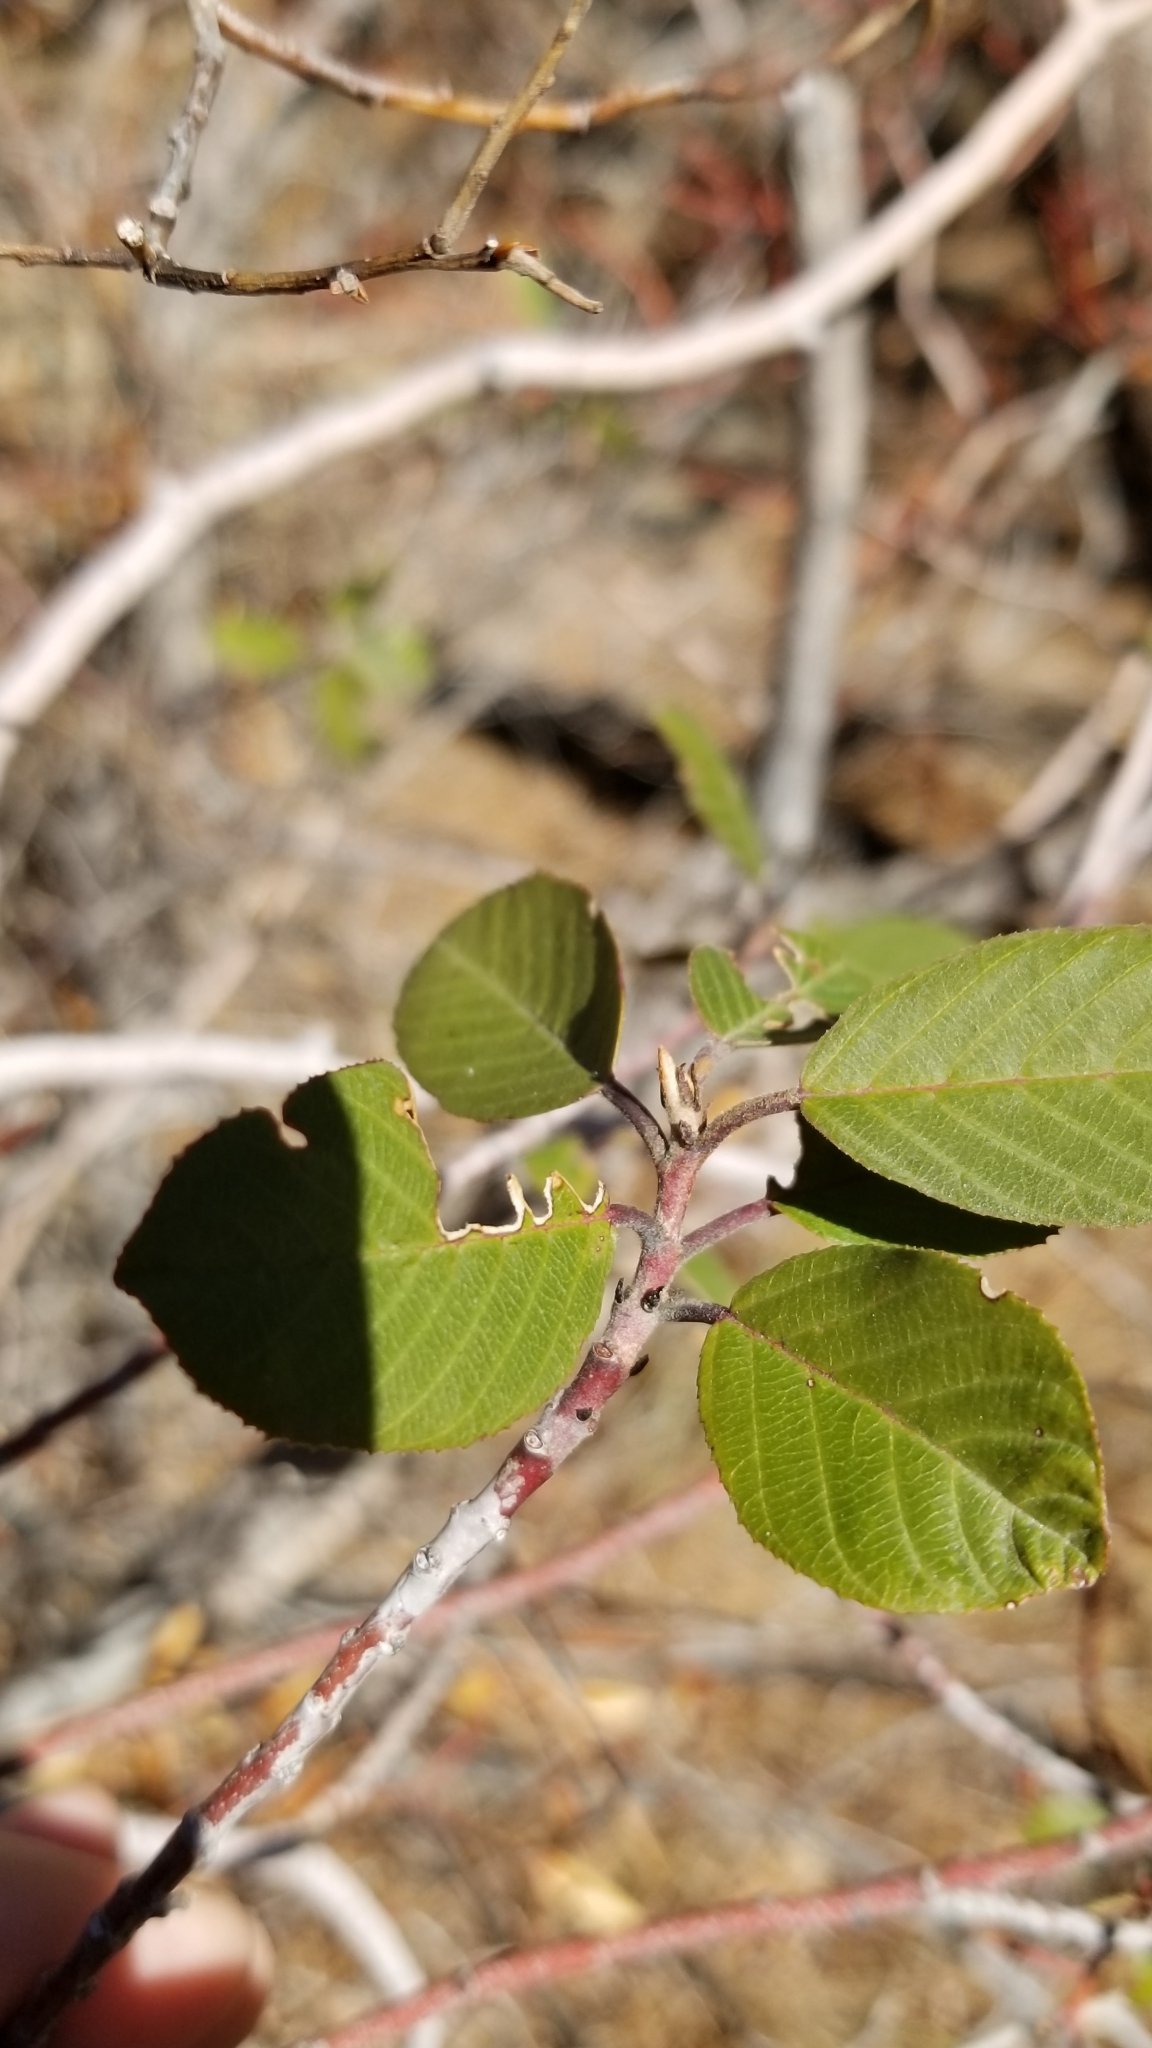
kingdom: Plantae
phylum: Tracheophyta
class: Magnoliopsida
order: Rosales
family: Rhamnaceae
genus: Frangula
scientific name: Frangula californica
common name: California buckthorn
